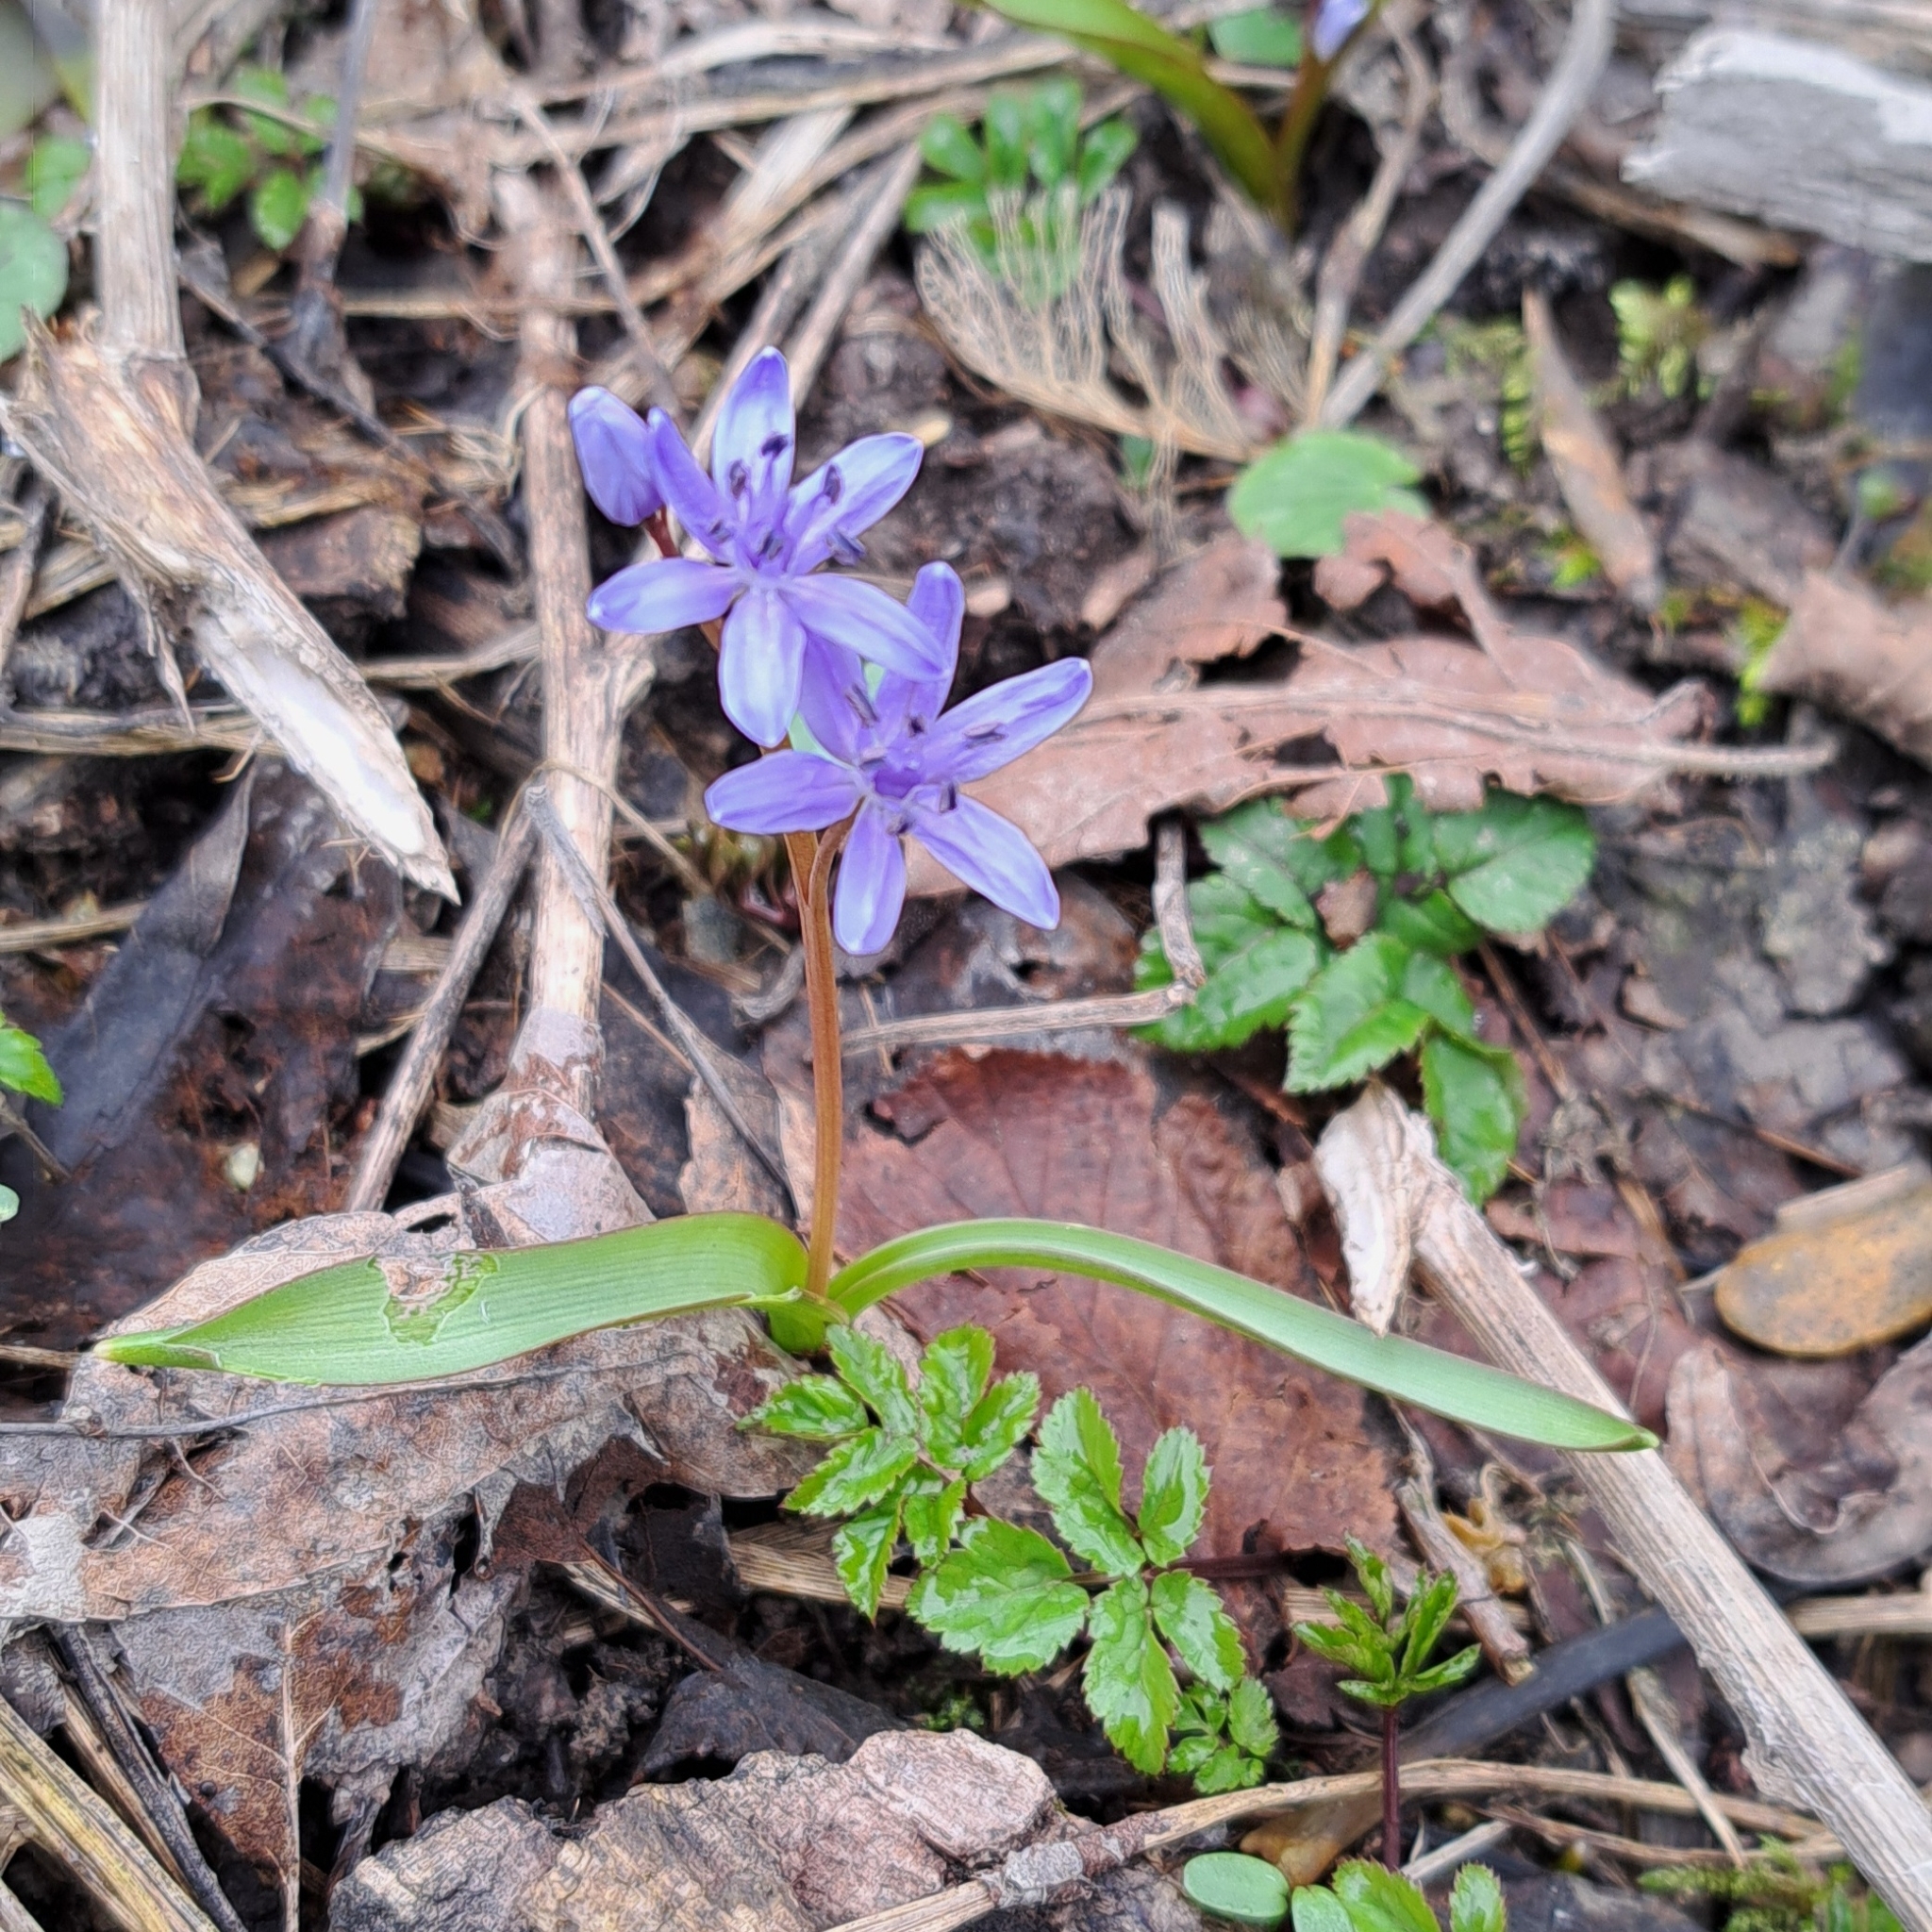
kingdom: Plantae
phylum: Tracheophyta
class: Liliopsida
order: Asparagales
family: Asparagaceae
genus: Scilla
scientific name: Scilla bifolia
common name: Alpine squill
